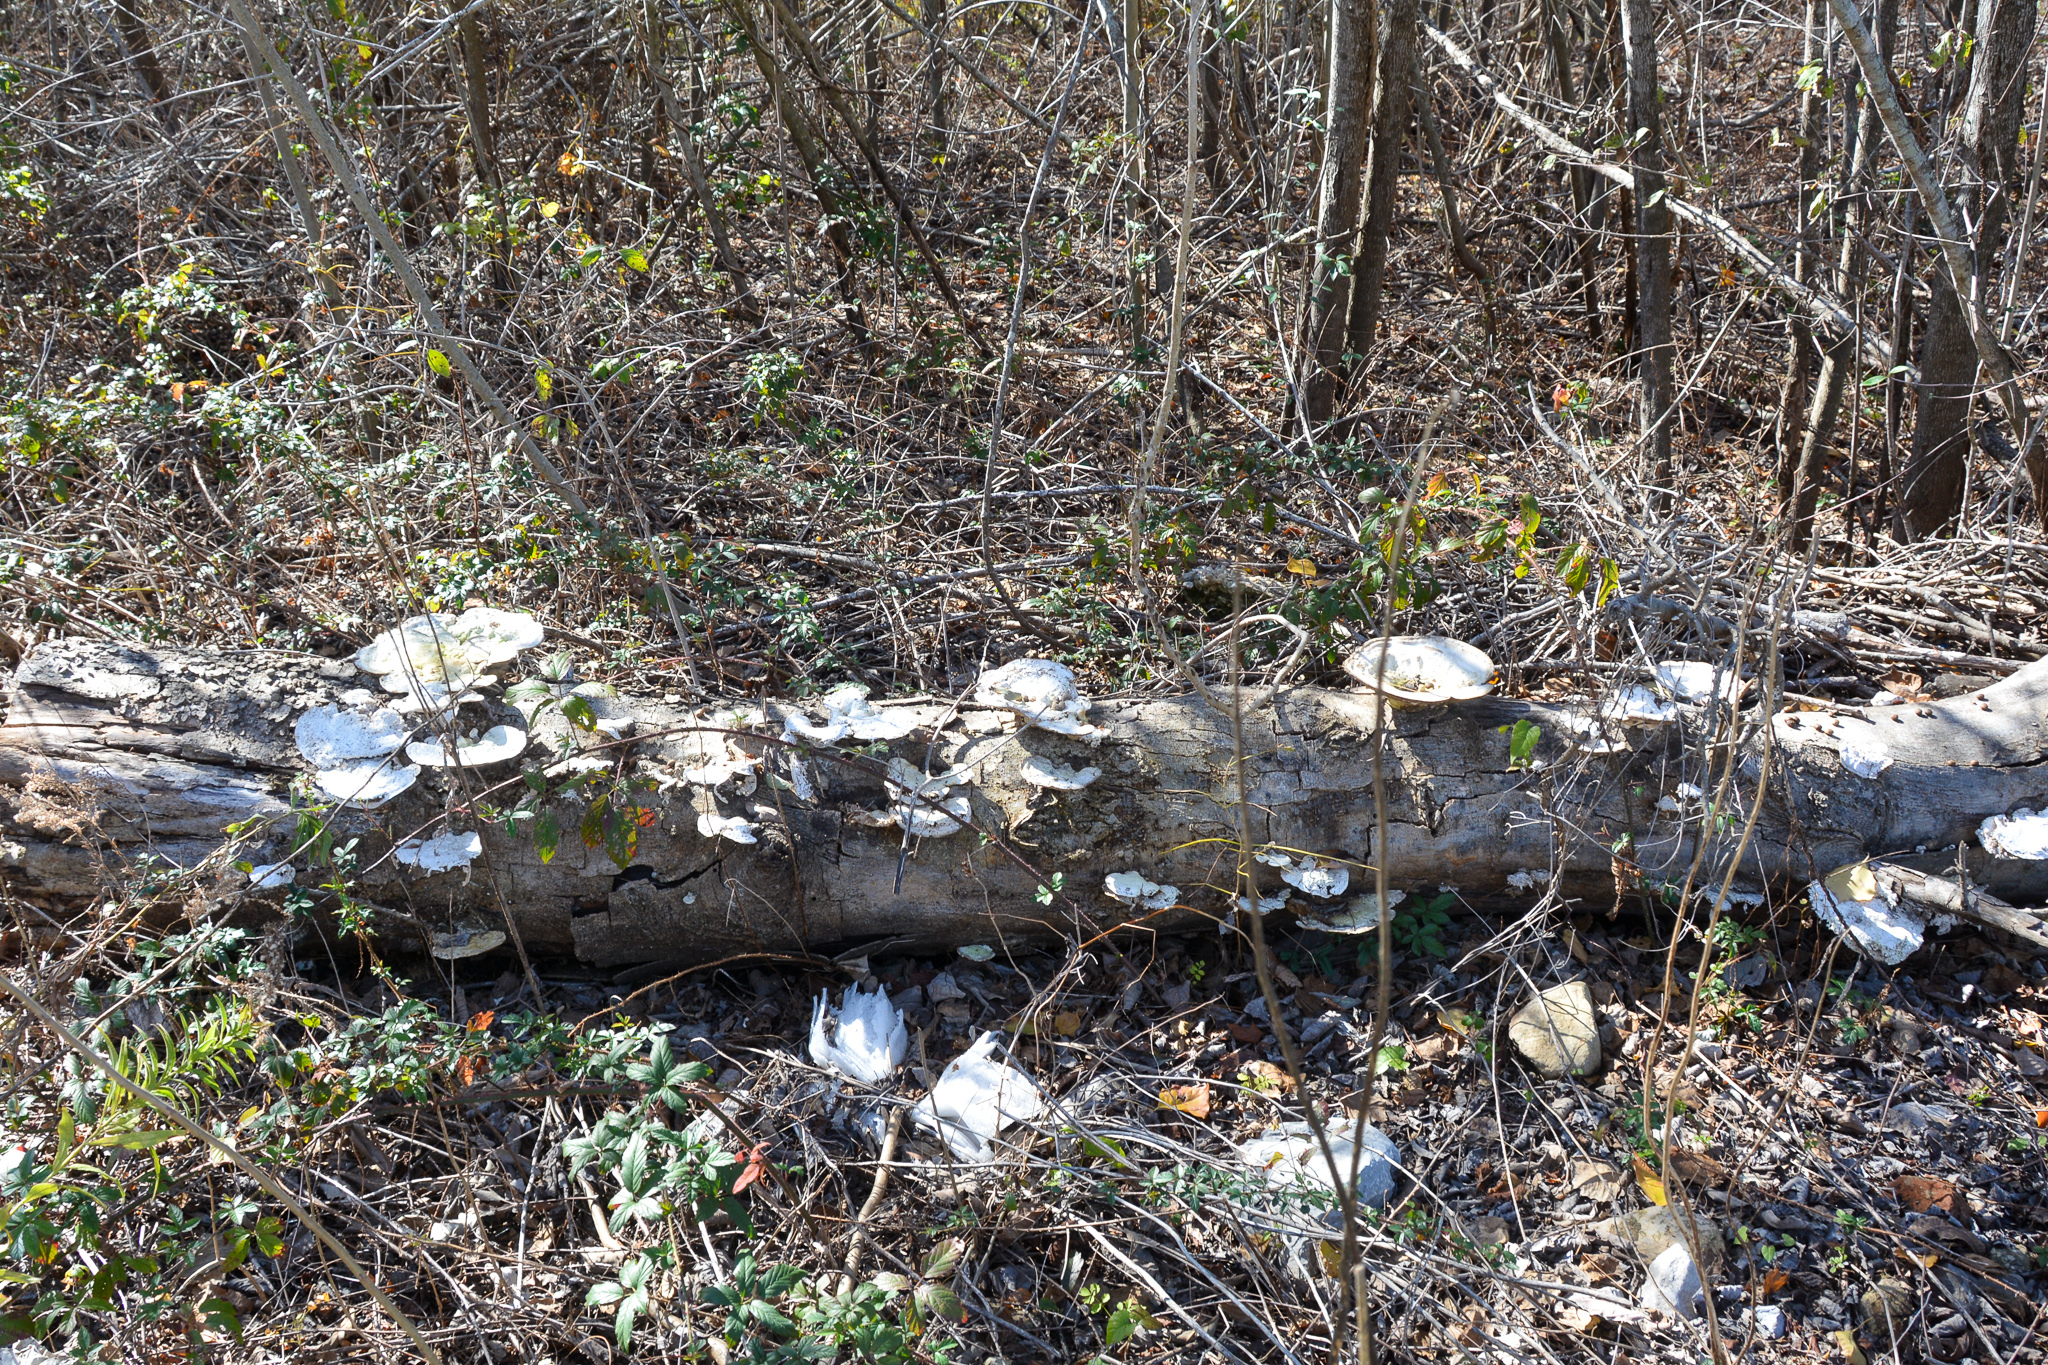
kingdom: Fungi
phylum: Basidiomycota
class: Agaricomycetes
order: Polyporales
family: Polyporaceae
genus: Trametes
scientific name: Trametes
